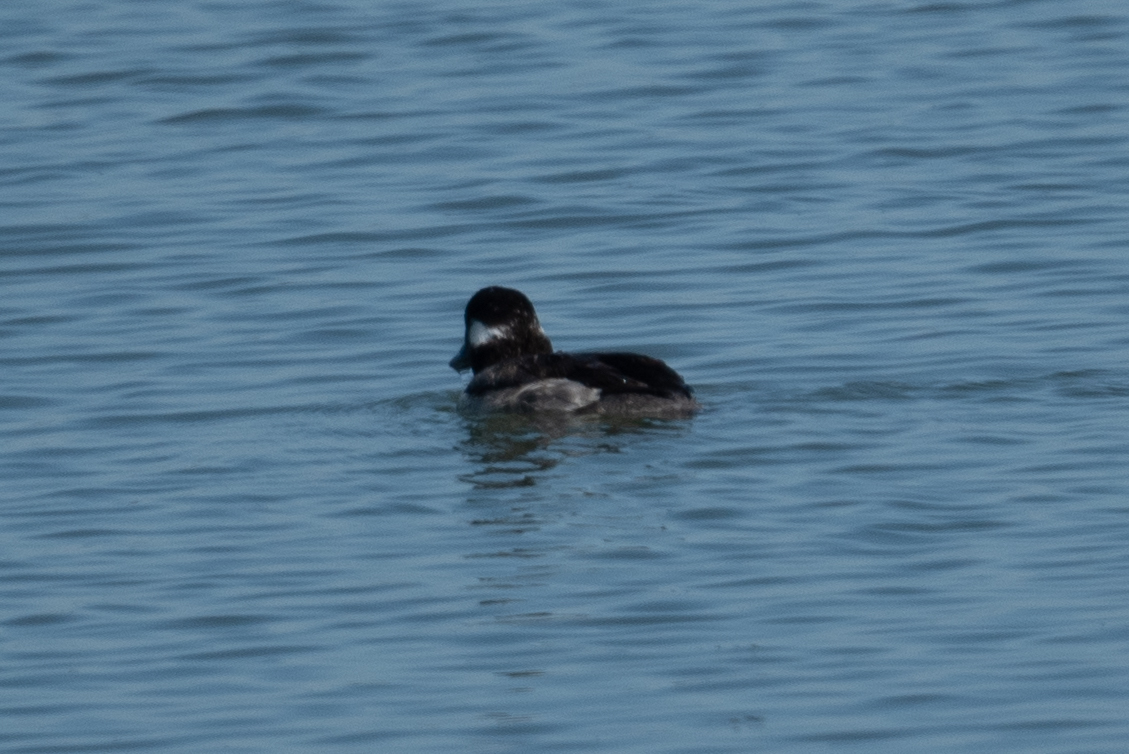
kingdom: Animalia
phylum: Chordata
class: Aves
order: Anseriformes
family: Anatidae
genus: Bucephala
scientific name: Bucephala albeola
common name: Bufflehead
